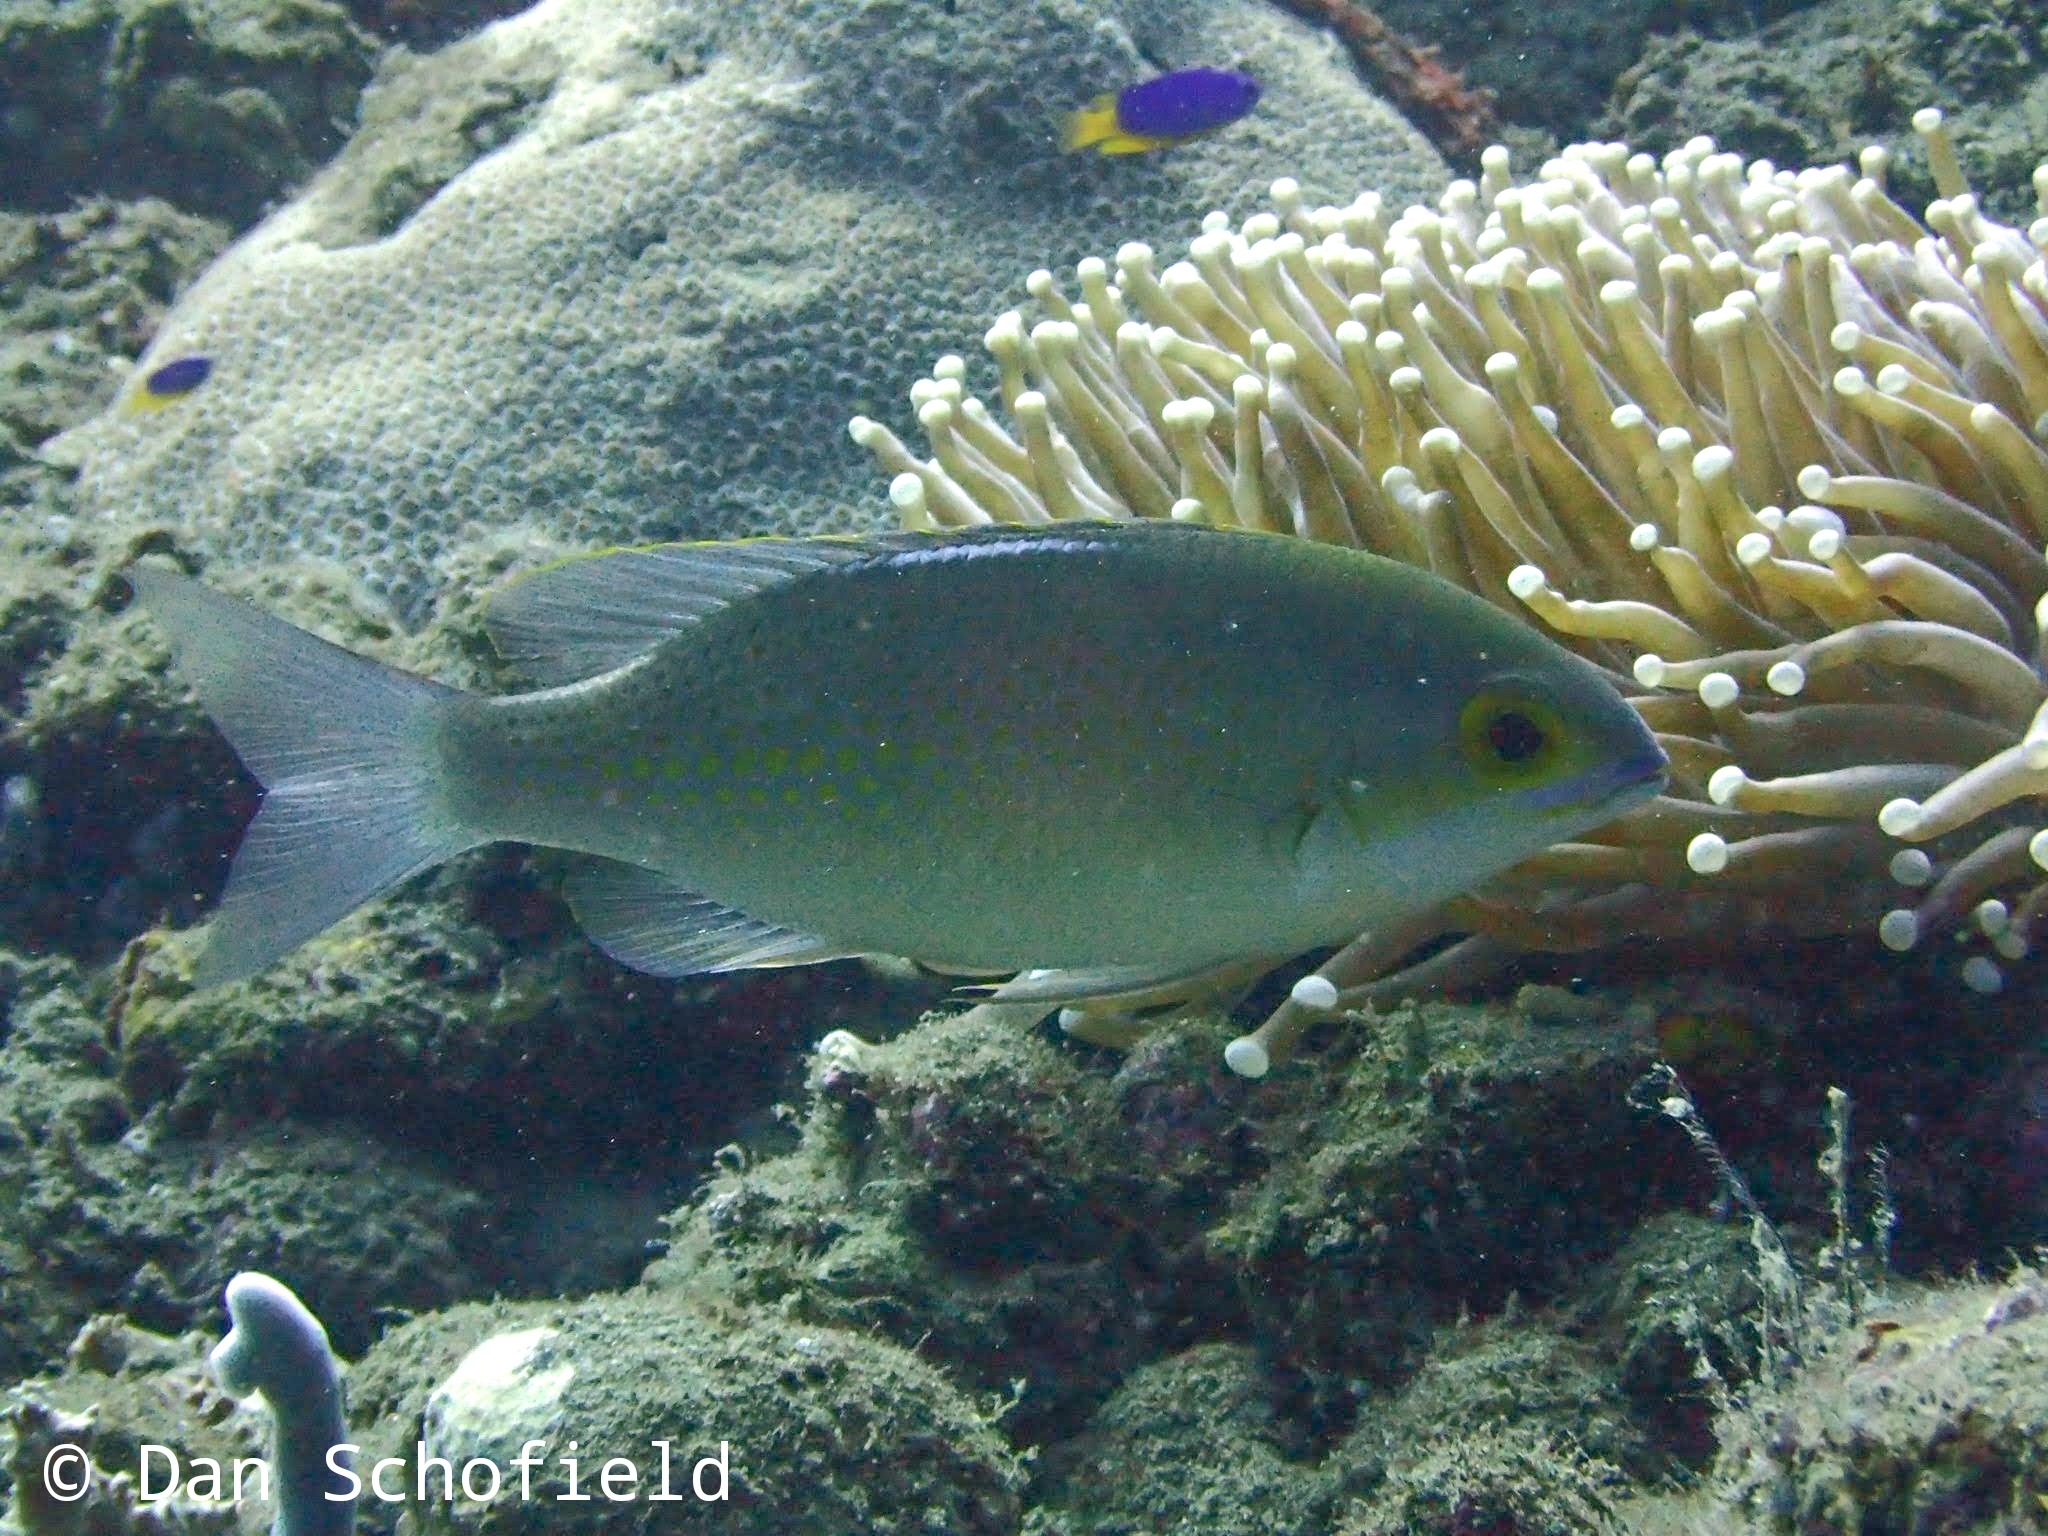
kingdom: Animalia
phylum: Chordata
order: Perciformes
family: Nemipteridae
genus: Scolopsis
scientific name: Scolopsis ciliata
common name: Ciliate spinecheek
